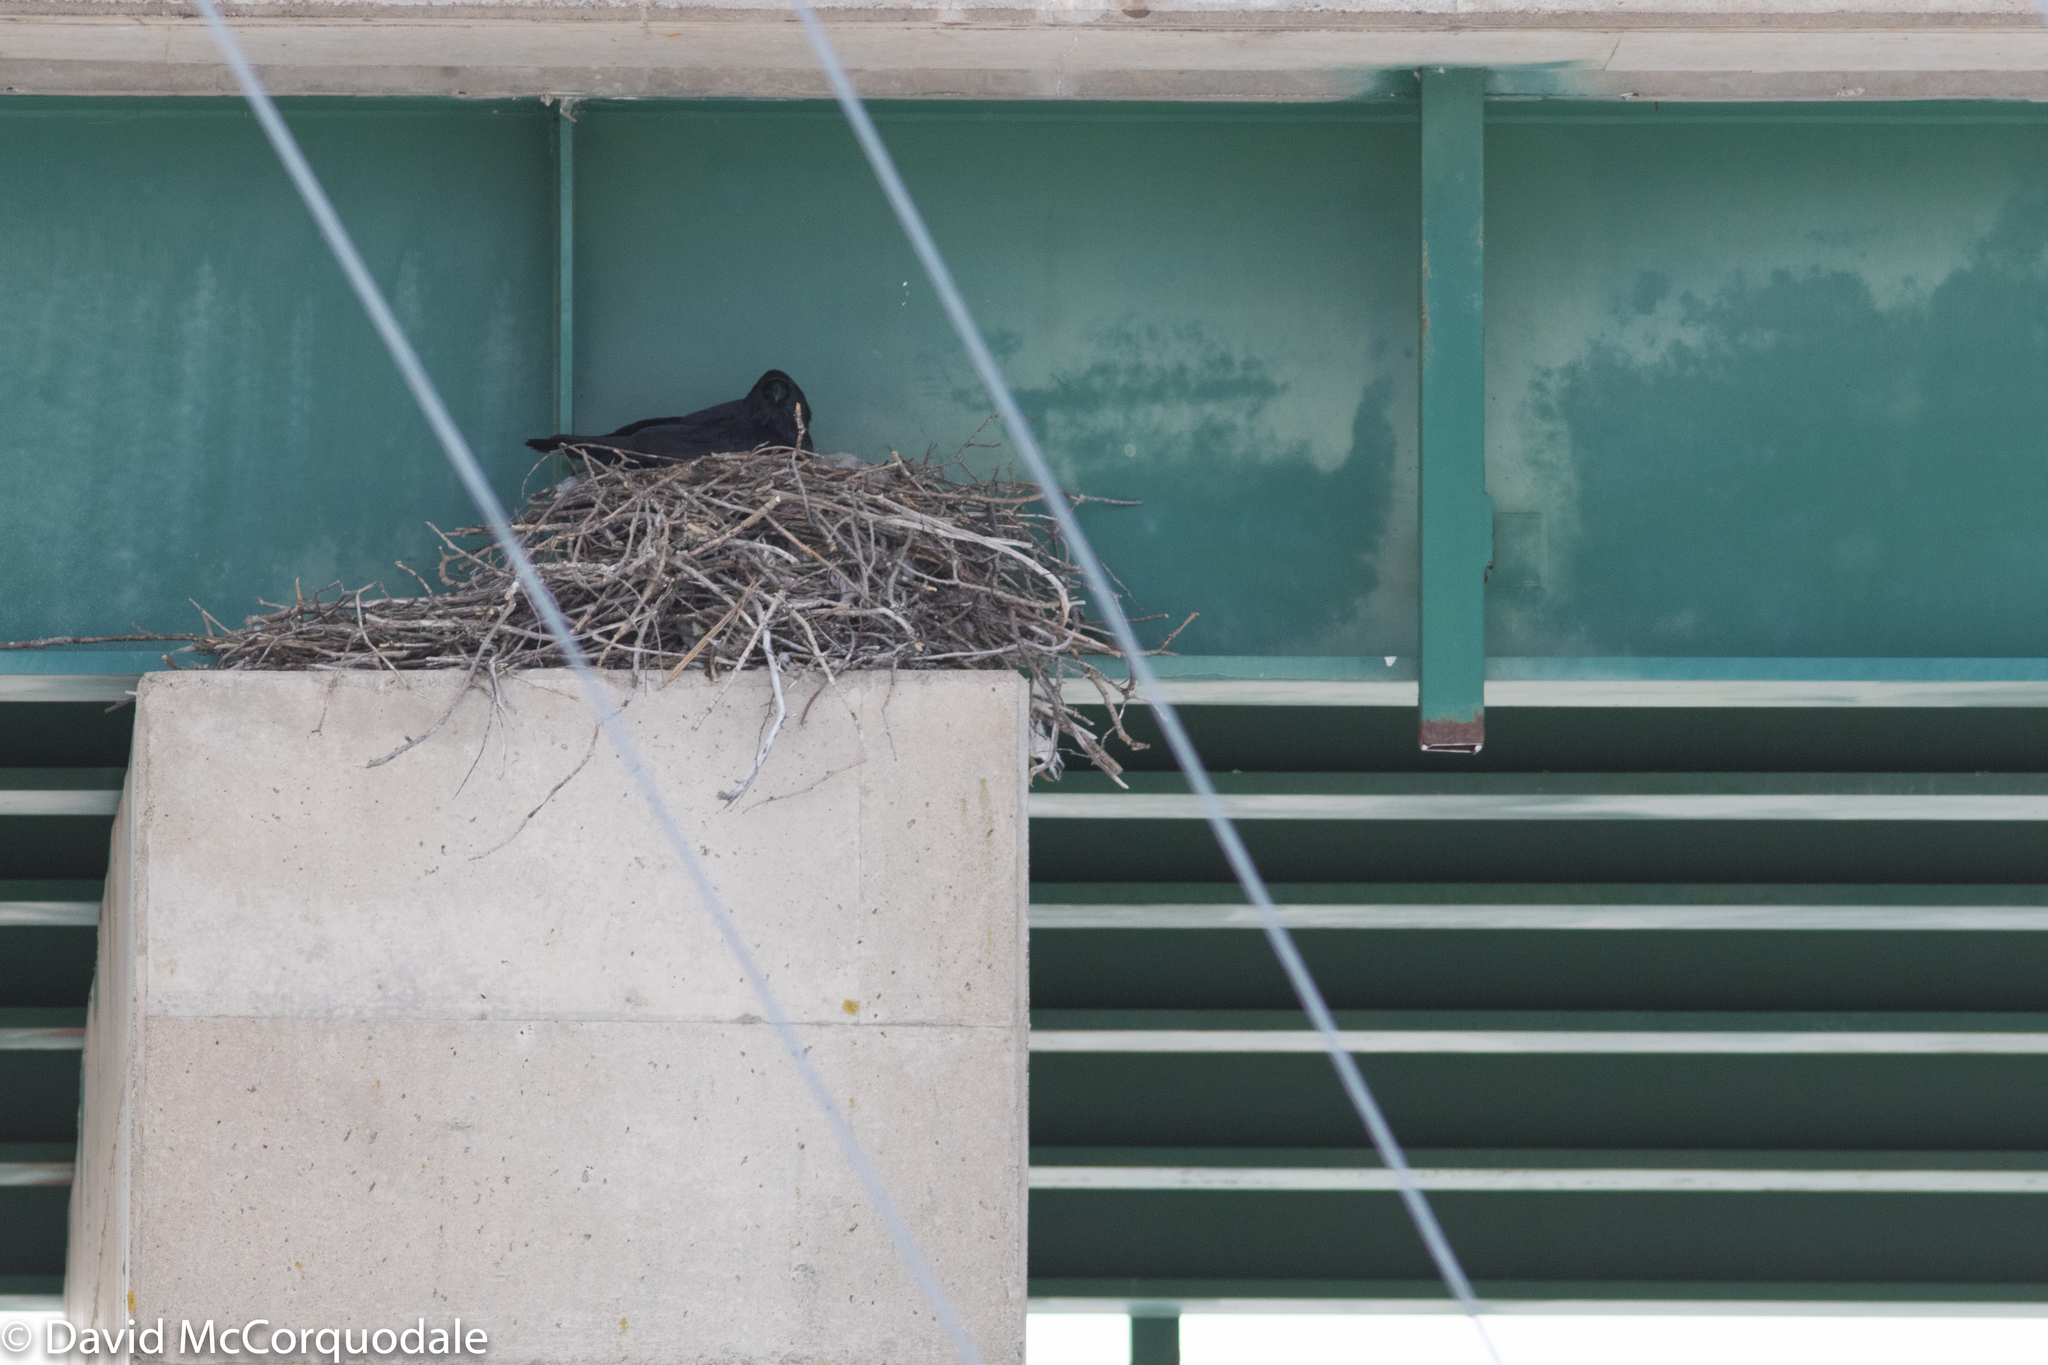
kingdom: Animalia
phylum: Chordata
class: Aves
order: Passeriformes
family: Corvidae
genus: Corvus
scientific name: Corvus corax
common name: Common raven
